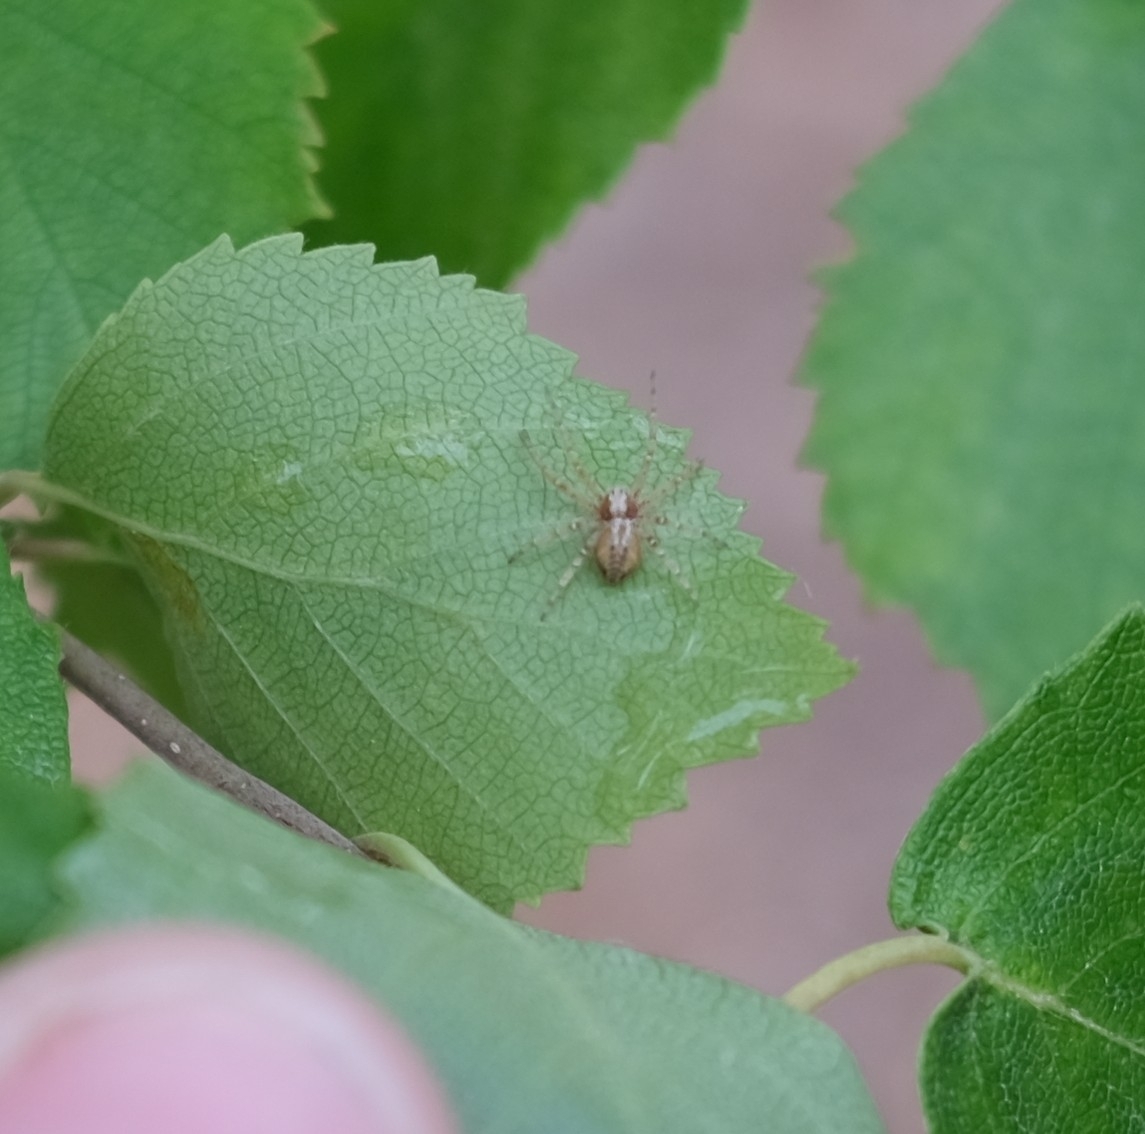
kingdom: Animalia
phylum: Arthropoda
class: Arachnida
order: Araneae
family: Philodromidae
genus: Philodromus
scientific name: Philodromus
